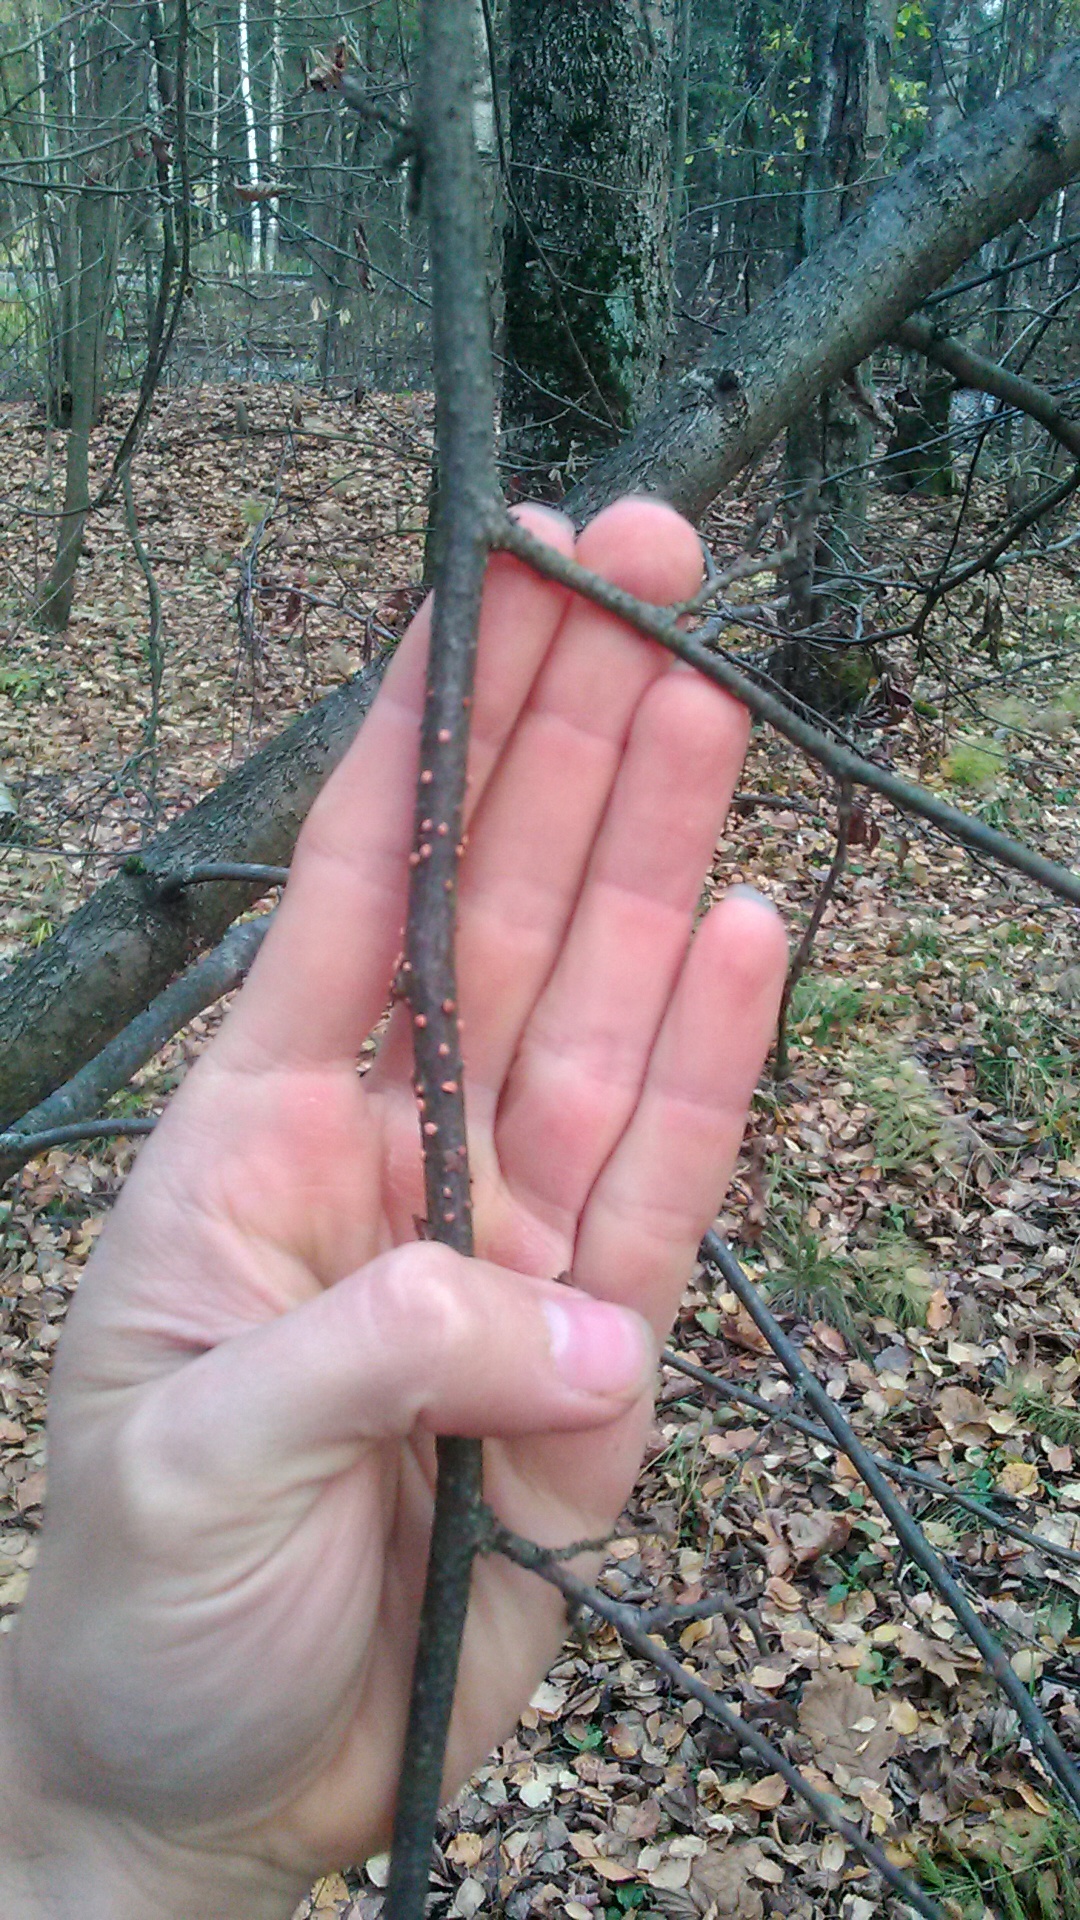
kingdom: Fungi
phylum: Ascomycota
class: Sordariomycetes
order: Hypocreales
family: Nectriaceae
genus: Nectria
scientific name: Nectria cinnabarina
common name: Coral spot
